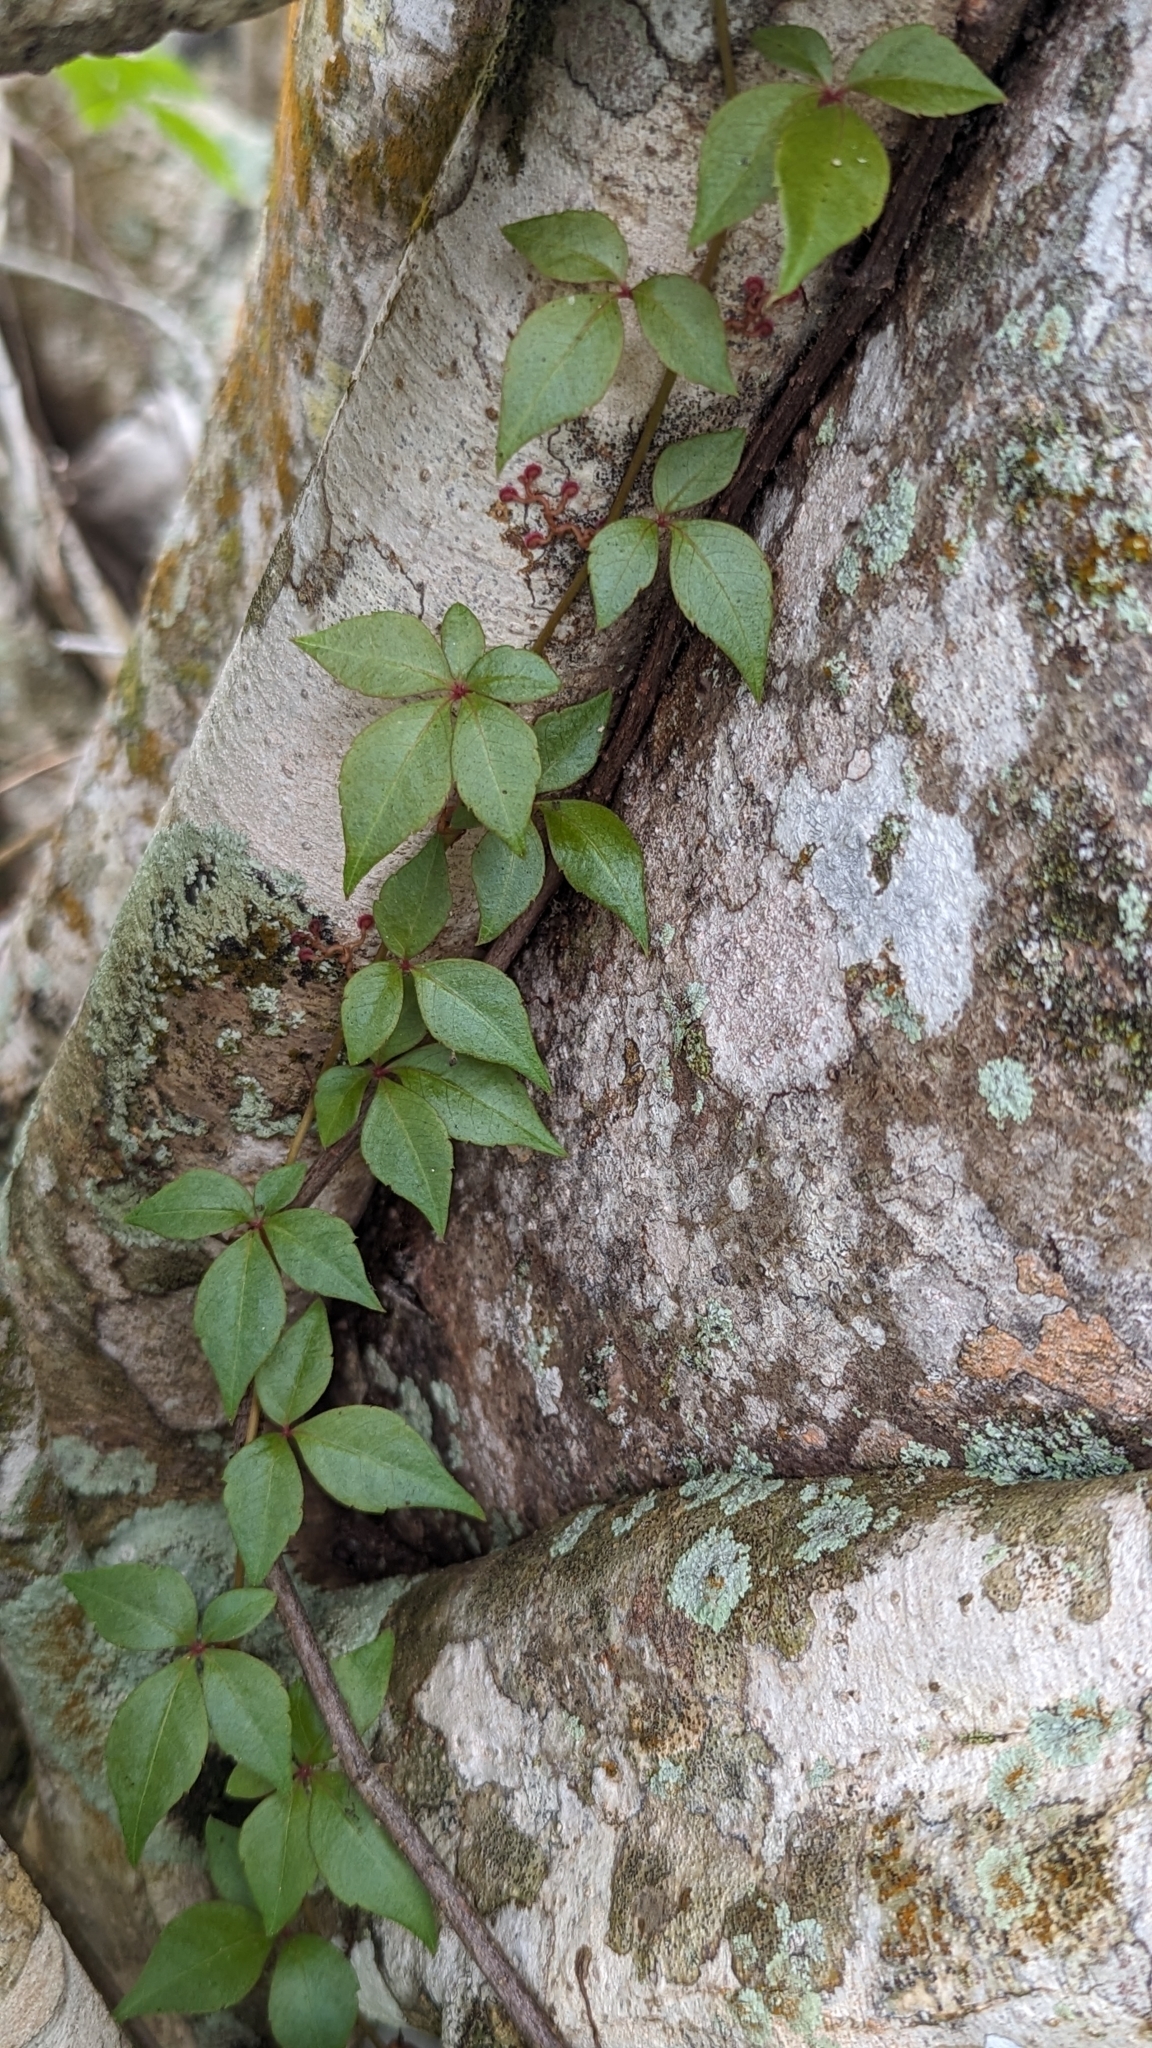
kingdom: Plantae
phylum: Tracheophyta
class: Magnoliopsida
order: Vitales
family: Vitaceae
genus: Parthenocissus
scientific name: Parthenocissus quinquefolia
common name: Virginia-creeper
